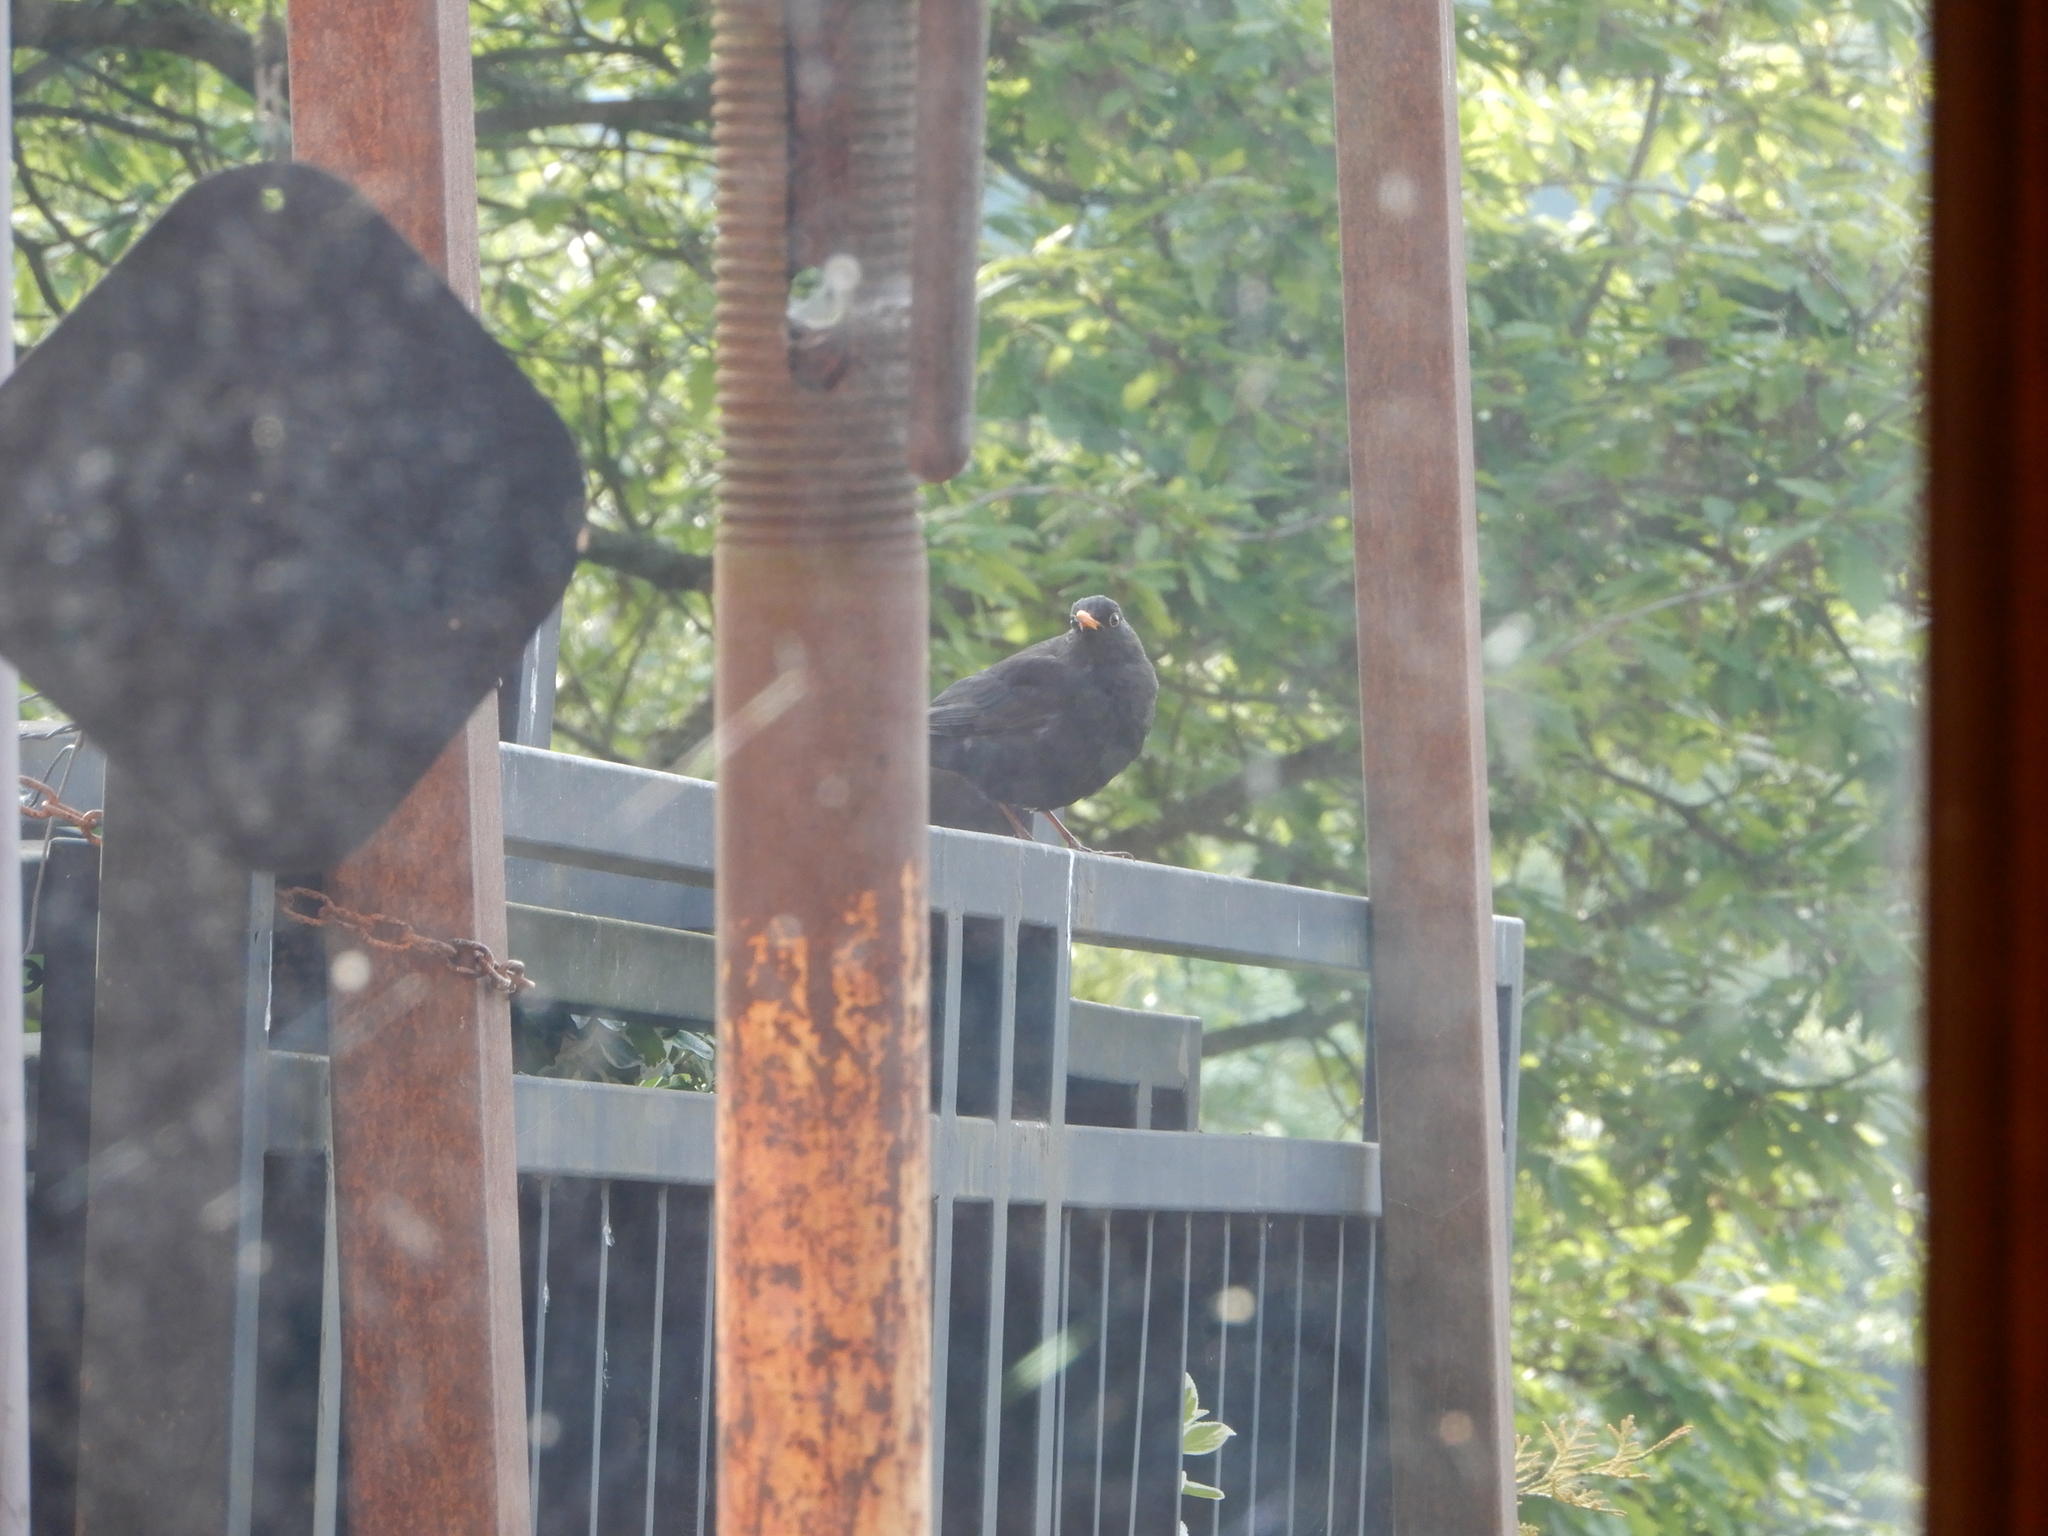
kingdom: Animalia
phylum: Chordata
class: Aves
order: Passeriformes
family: Turdidae
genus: Turdus
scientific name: Turdus merula
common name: Common blackbird
